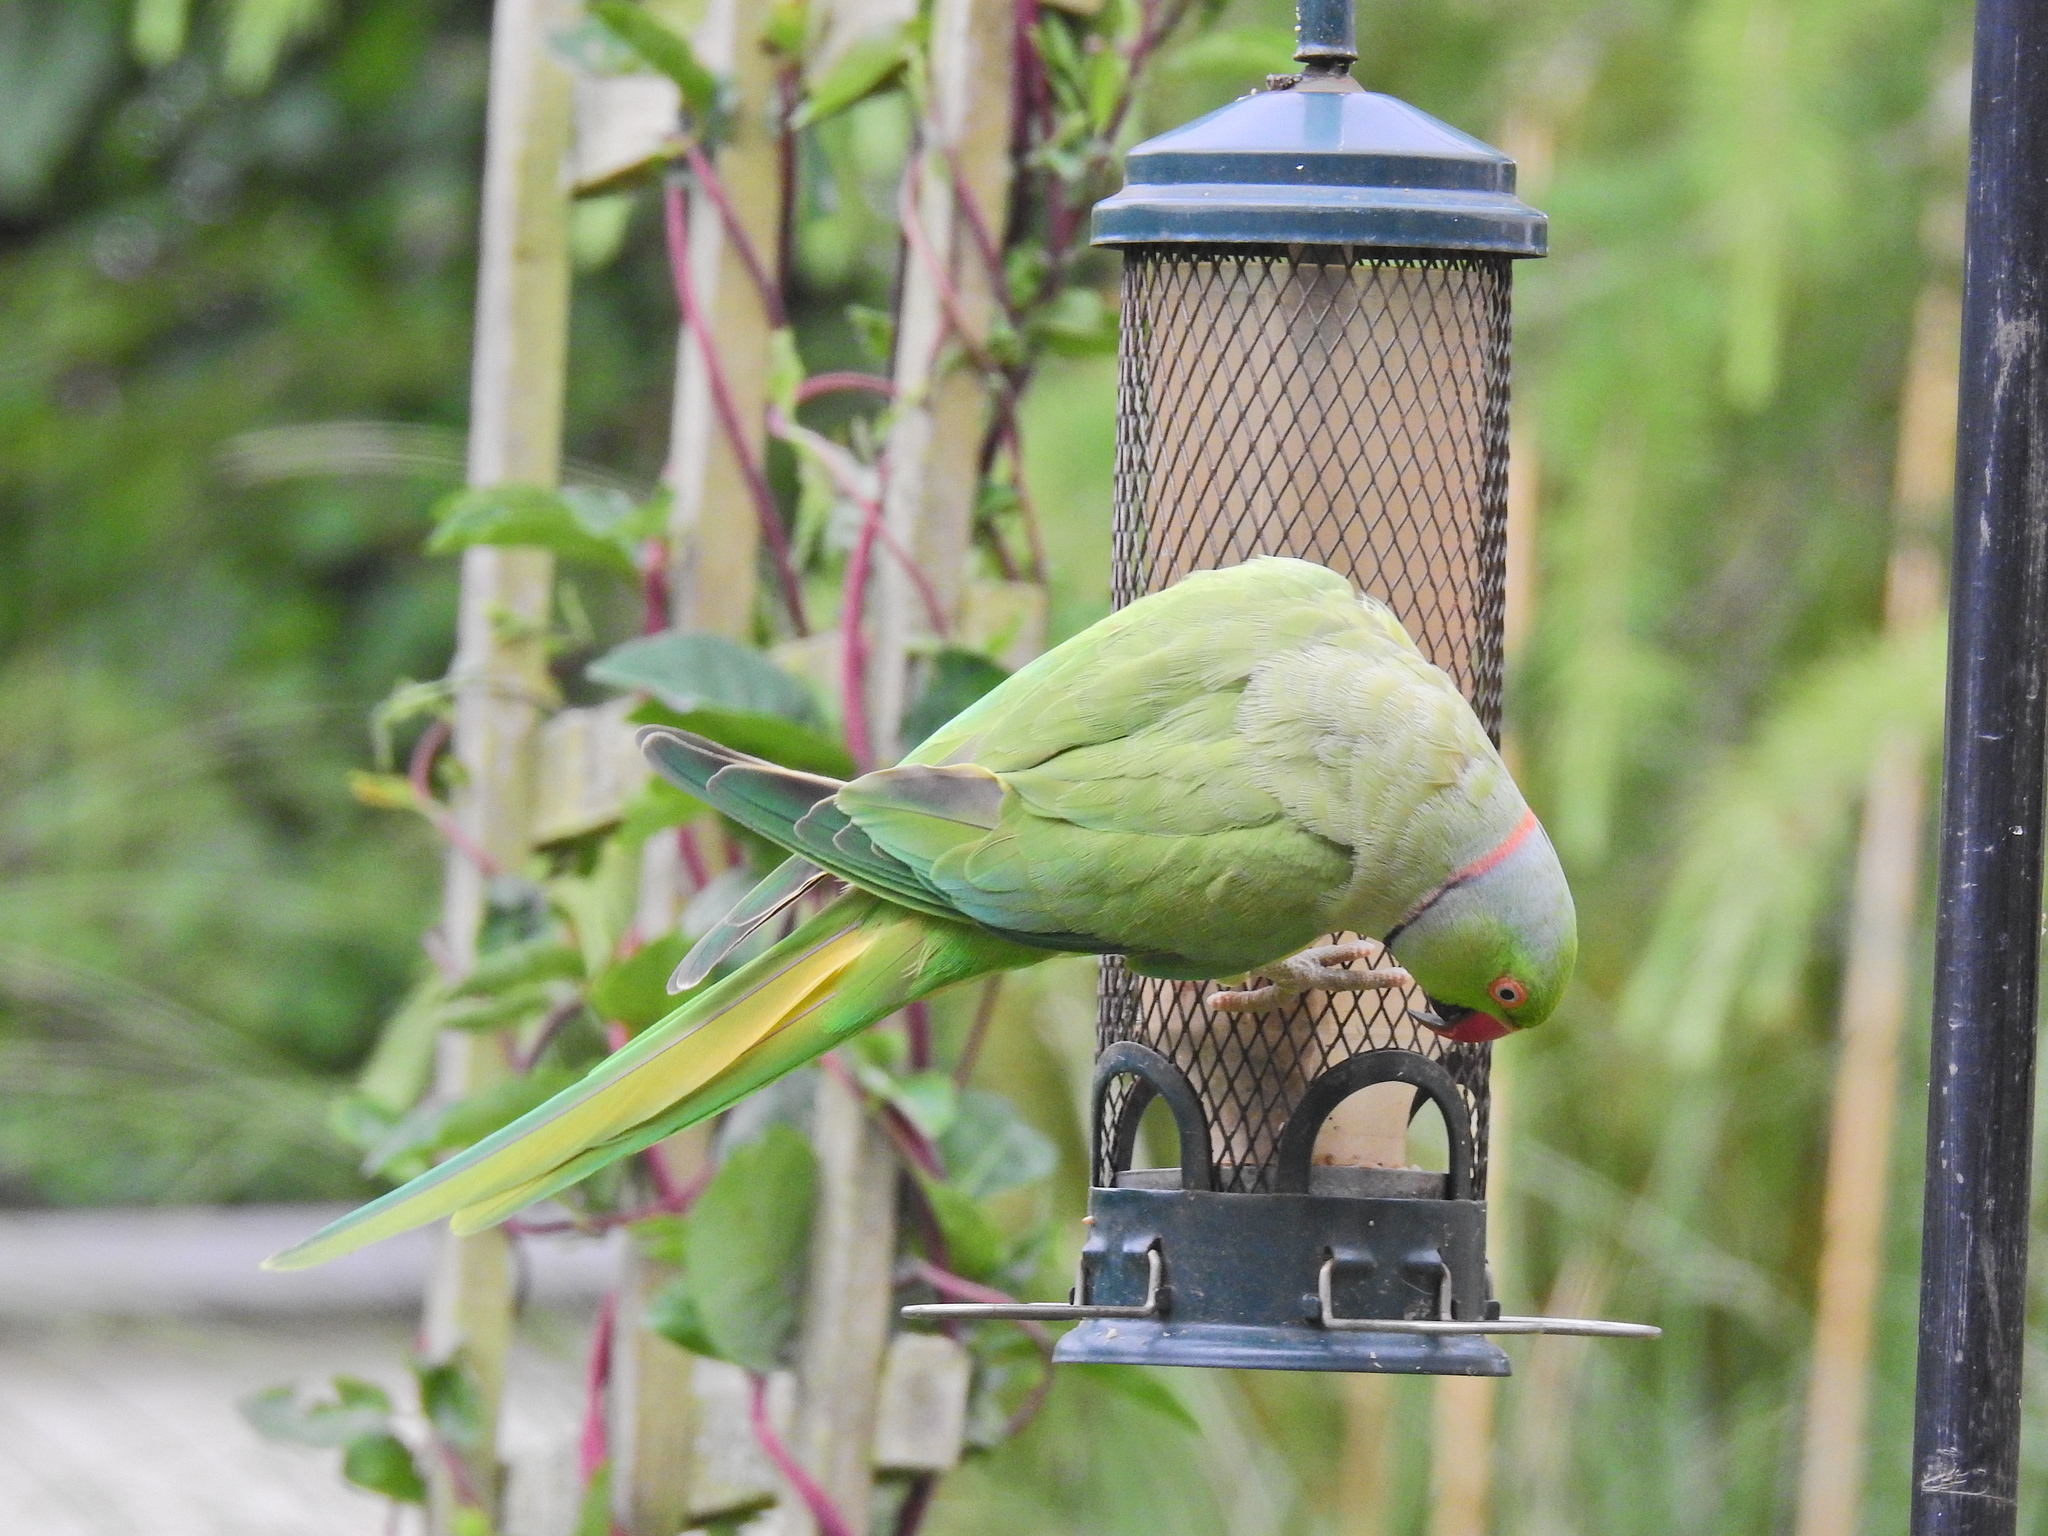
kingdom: Animalia
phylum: Chordata
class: Aves
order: Psittaciformes
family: Psittacidae
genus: Psittacula
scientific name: Psittacula krameri
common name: Rose-ringed parakeet
